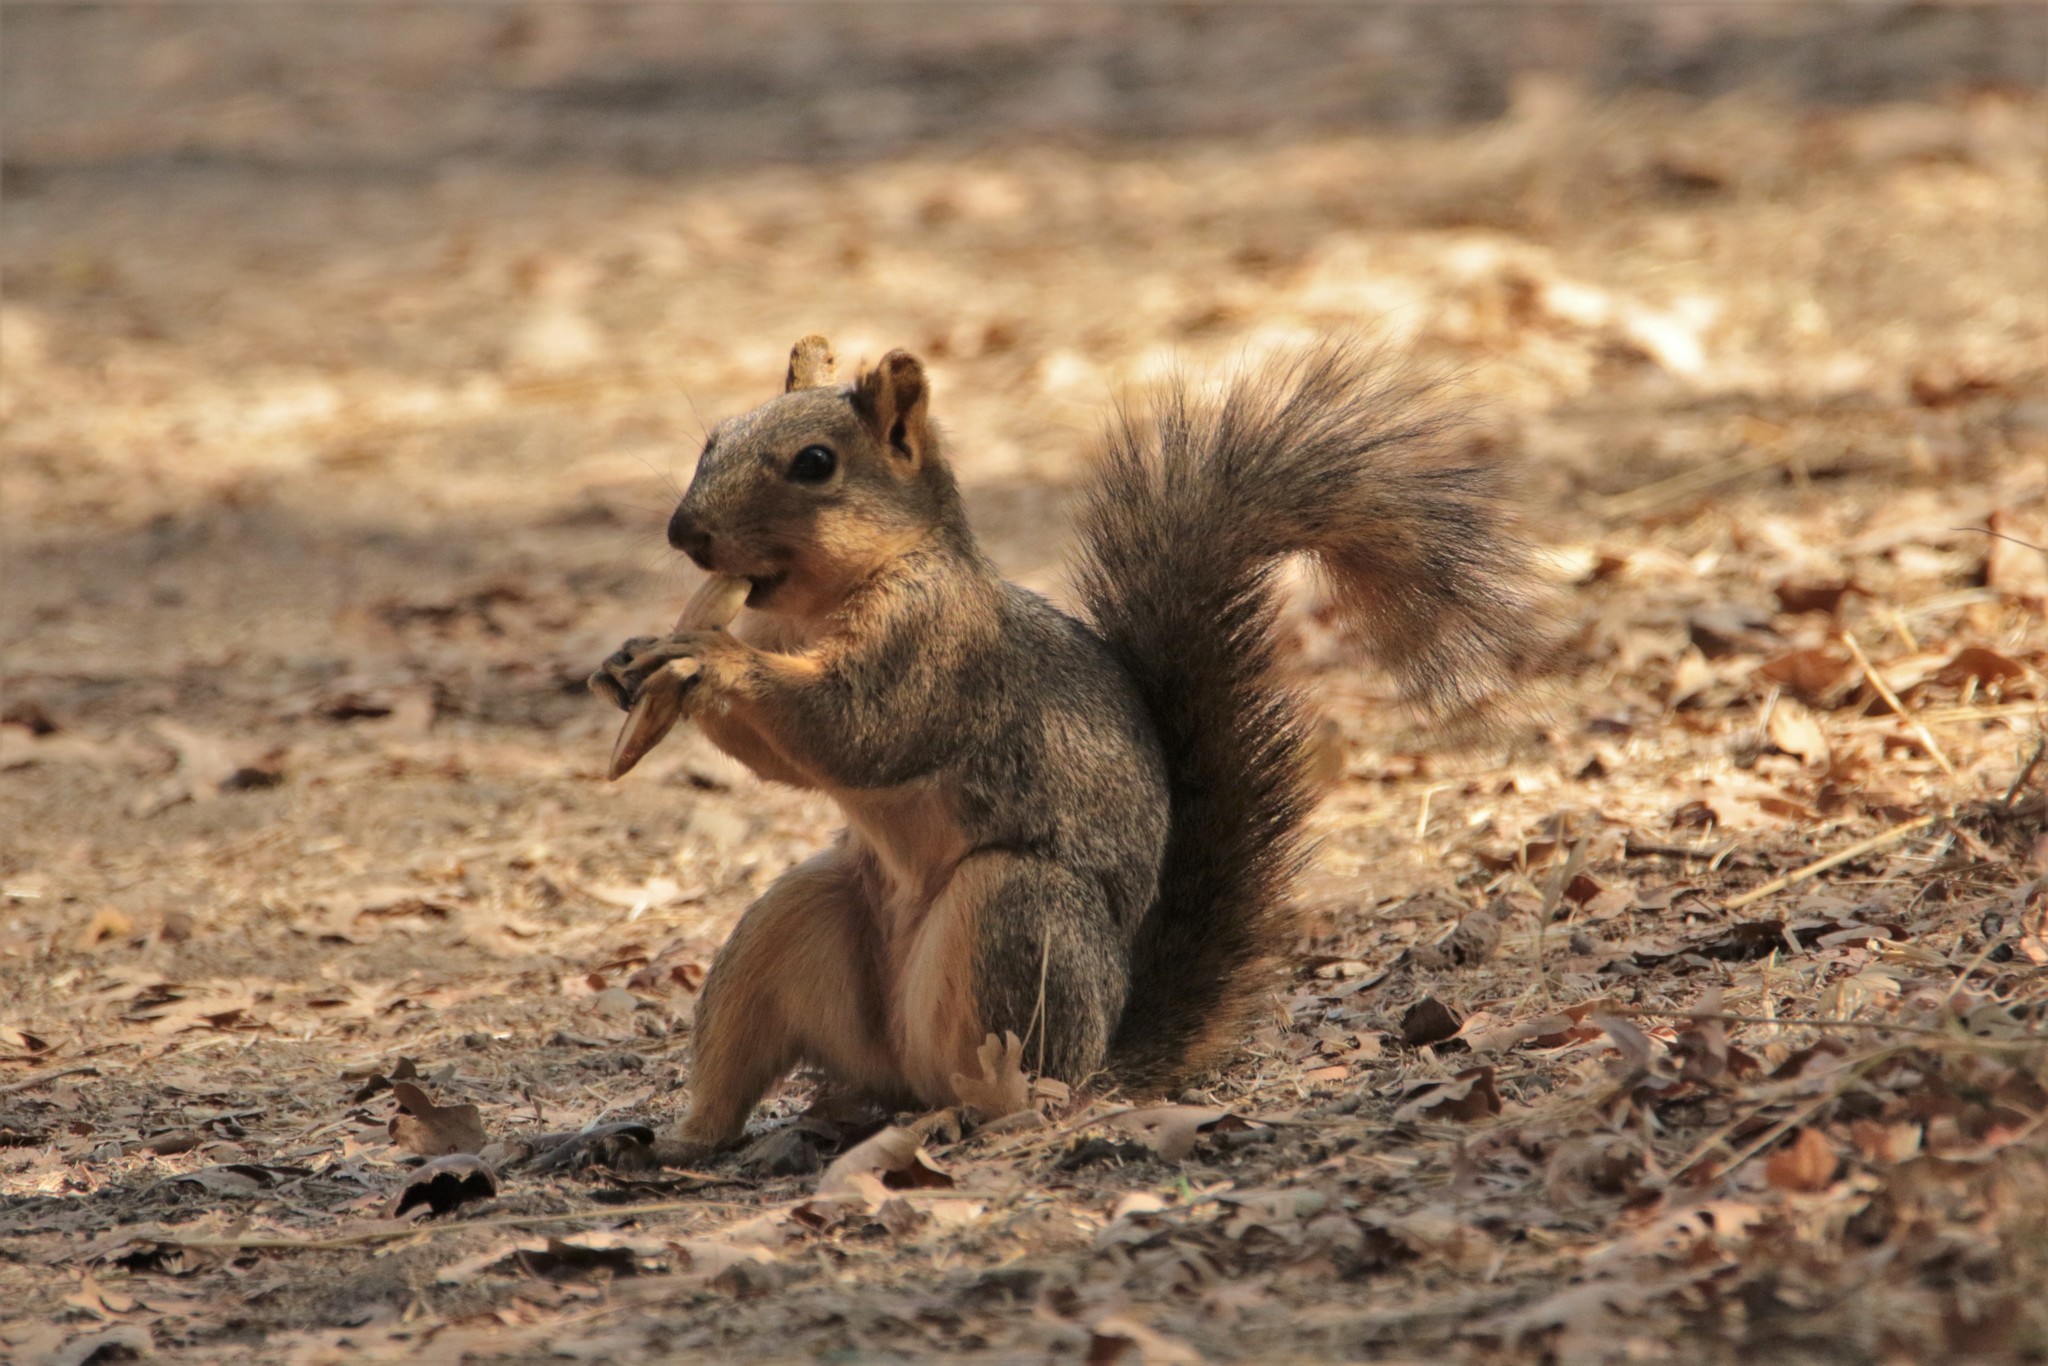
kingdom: Animalia
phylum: Chordata
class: Mammalia
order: Rodentia
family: Sciuridae
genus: Sciurus
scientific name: Sciurus niger
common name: Fox squirrel
